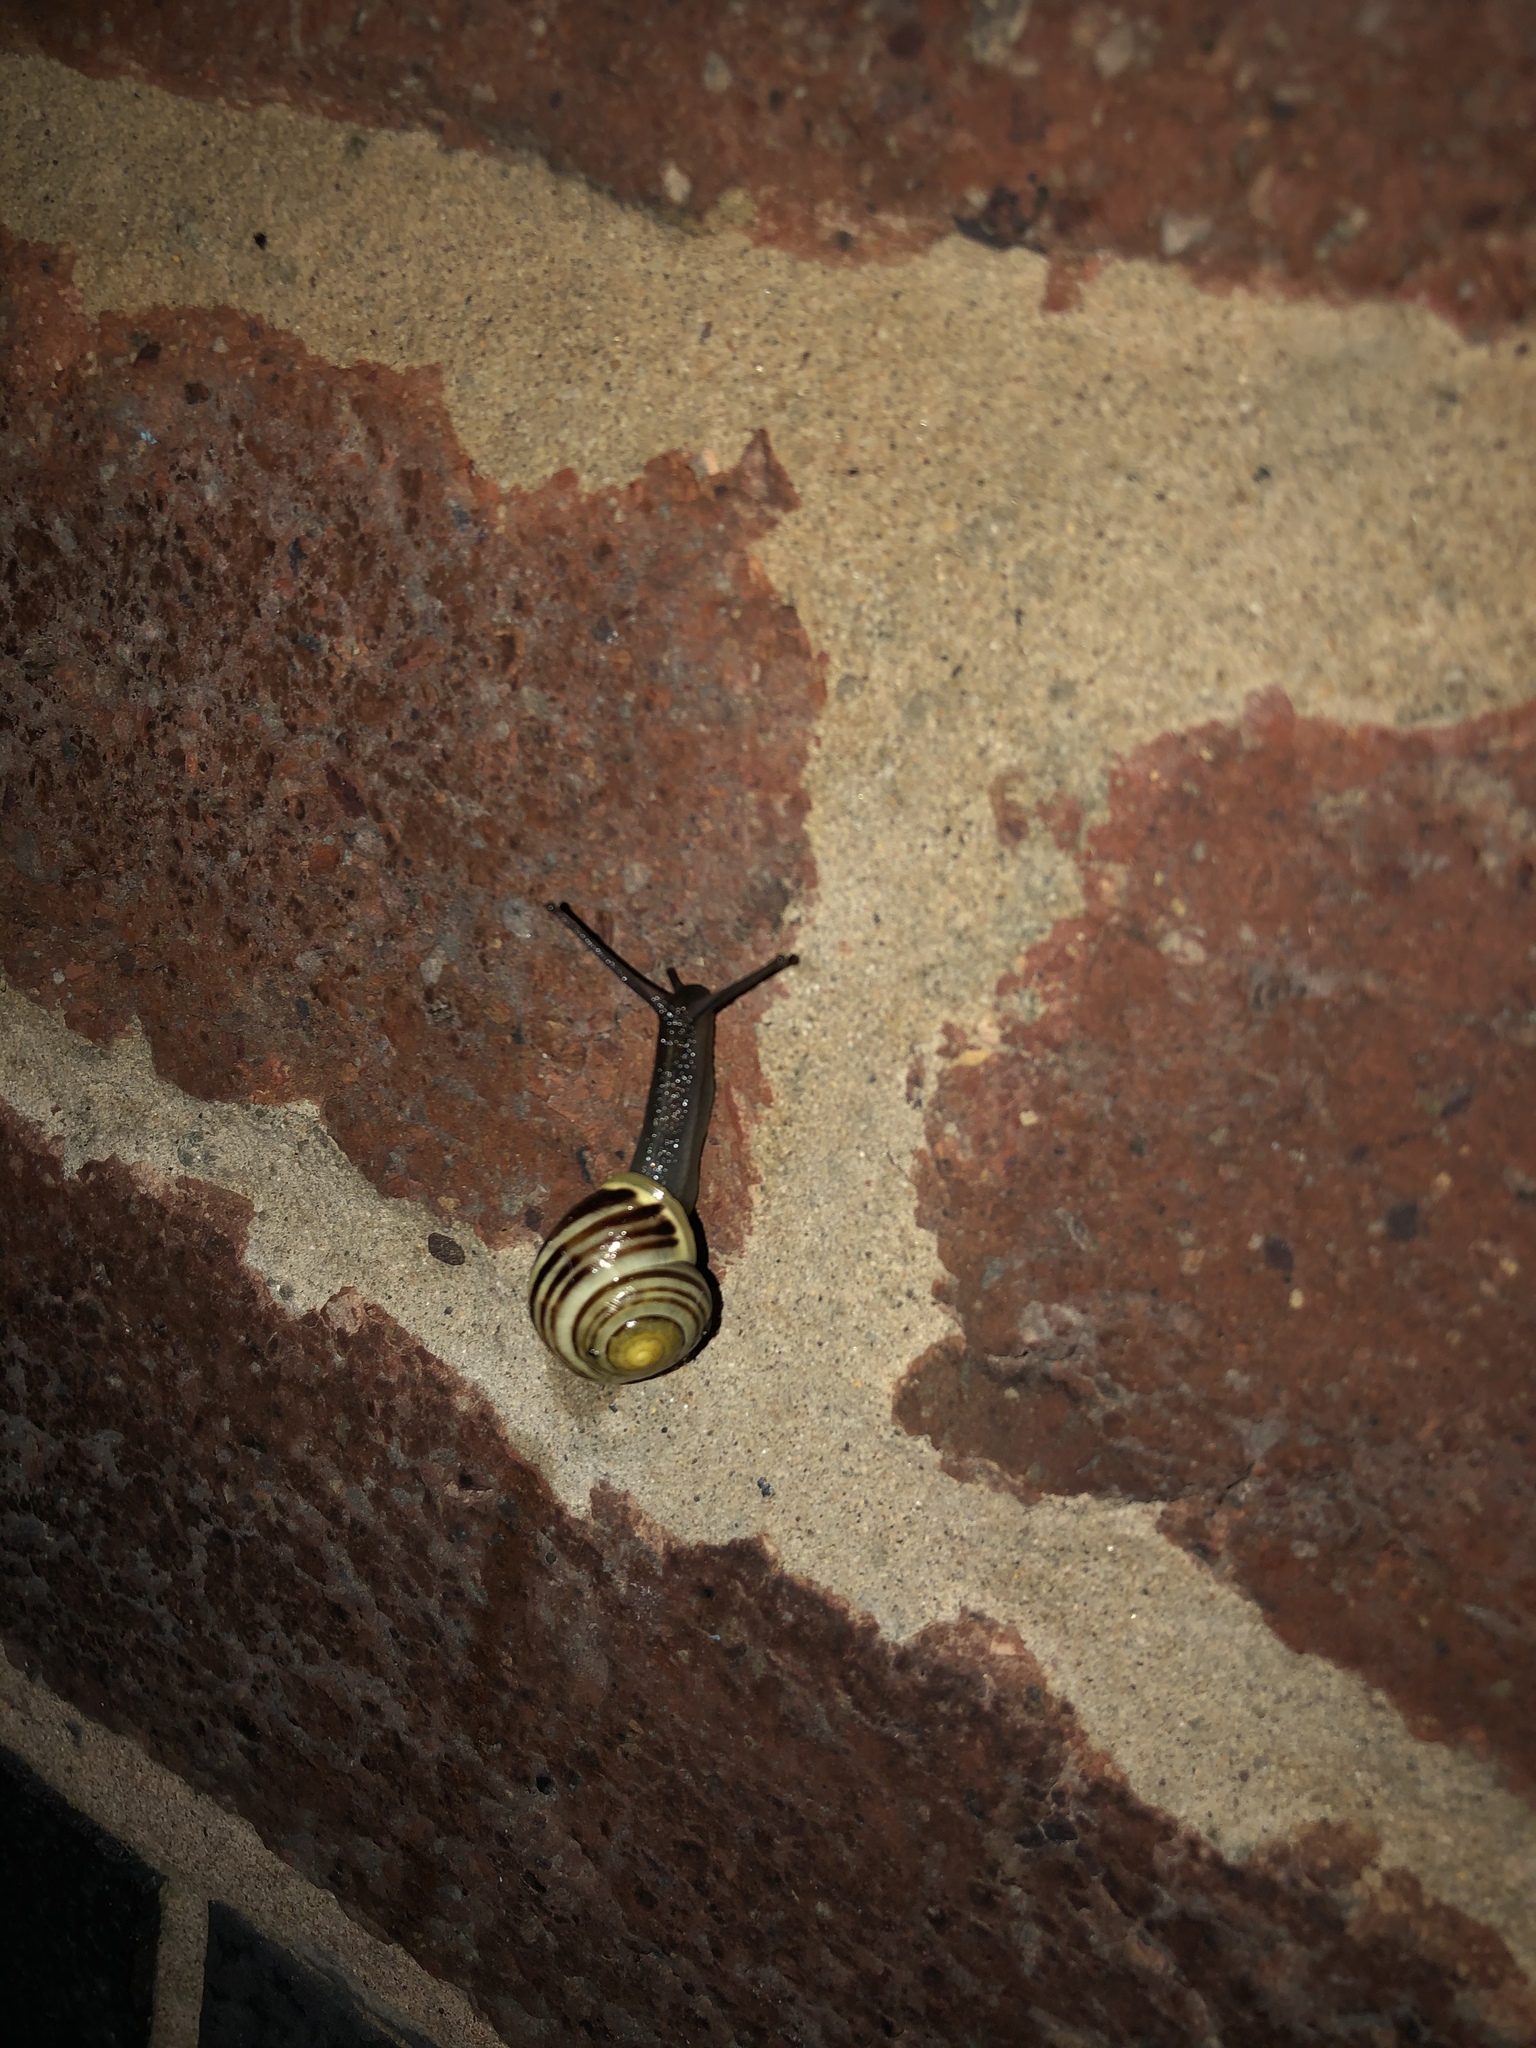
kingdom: Animalia
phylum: Mollusca
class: Gastropoda
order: Stylommatophora
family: Helicidae
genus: Cepaea
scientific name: Cepaea hortensis
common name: White-lip gardensnail
